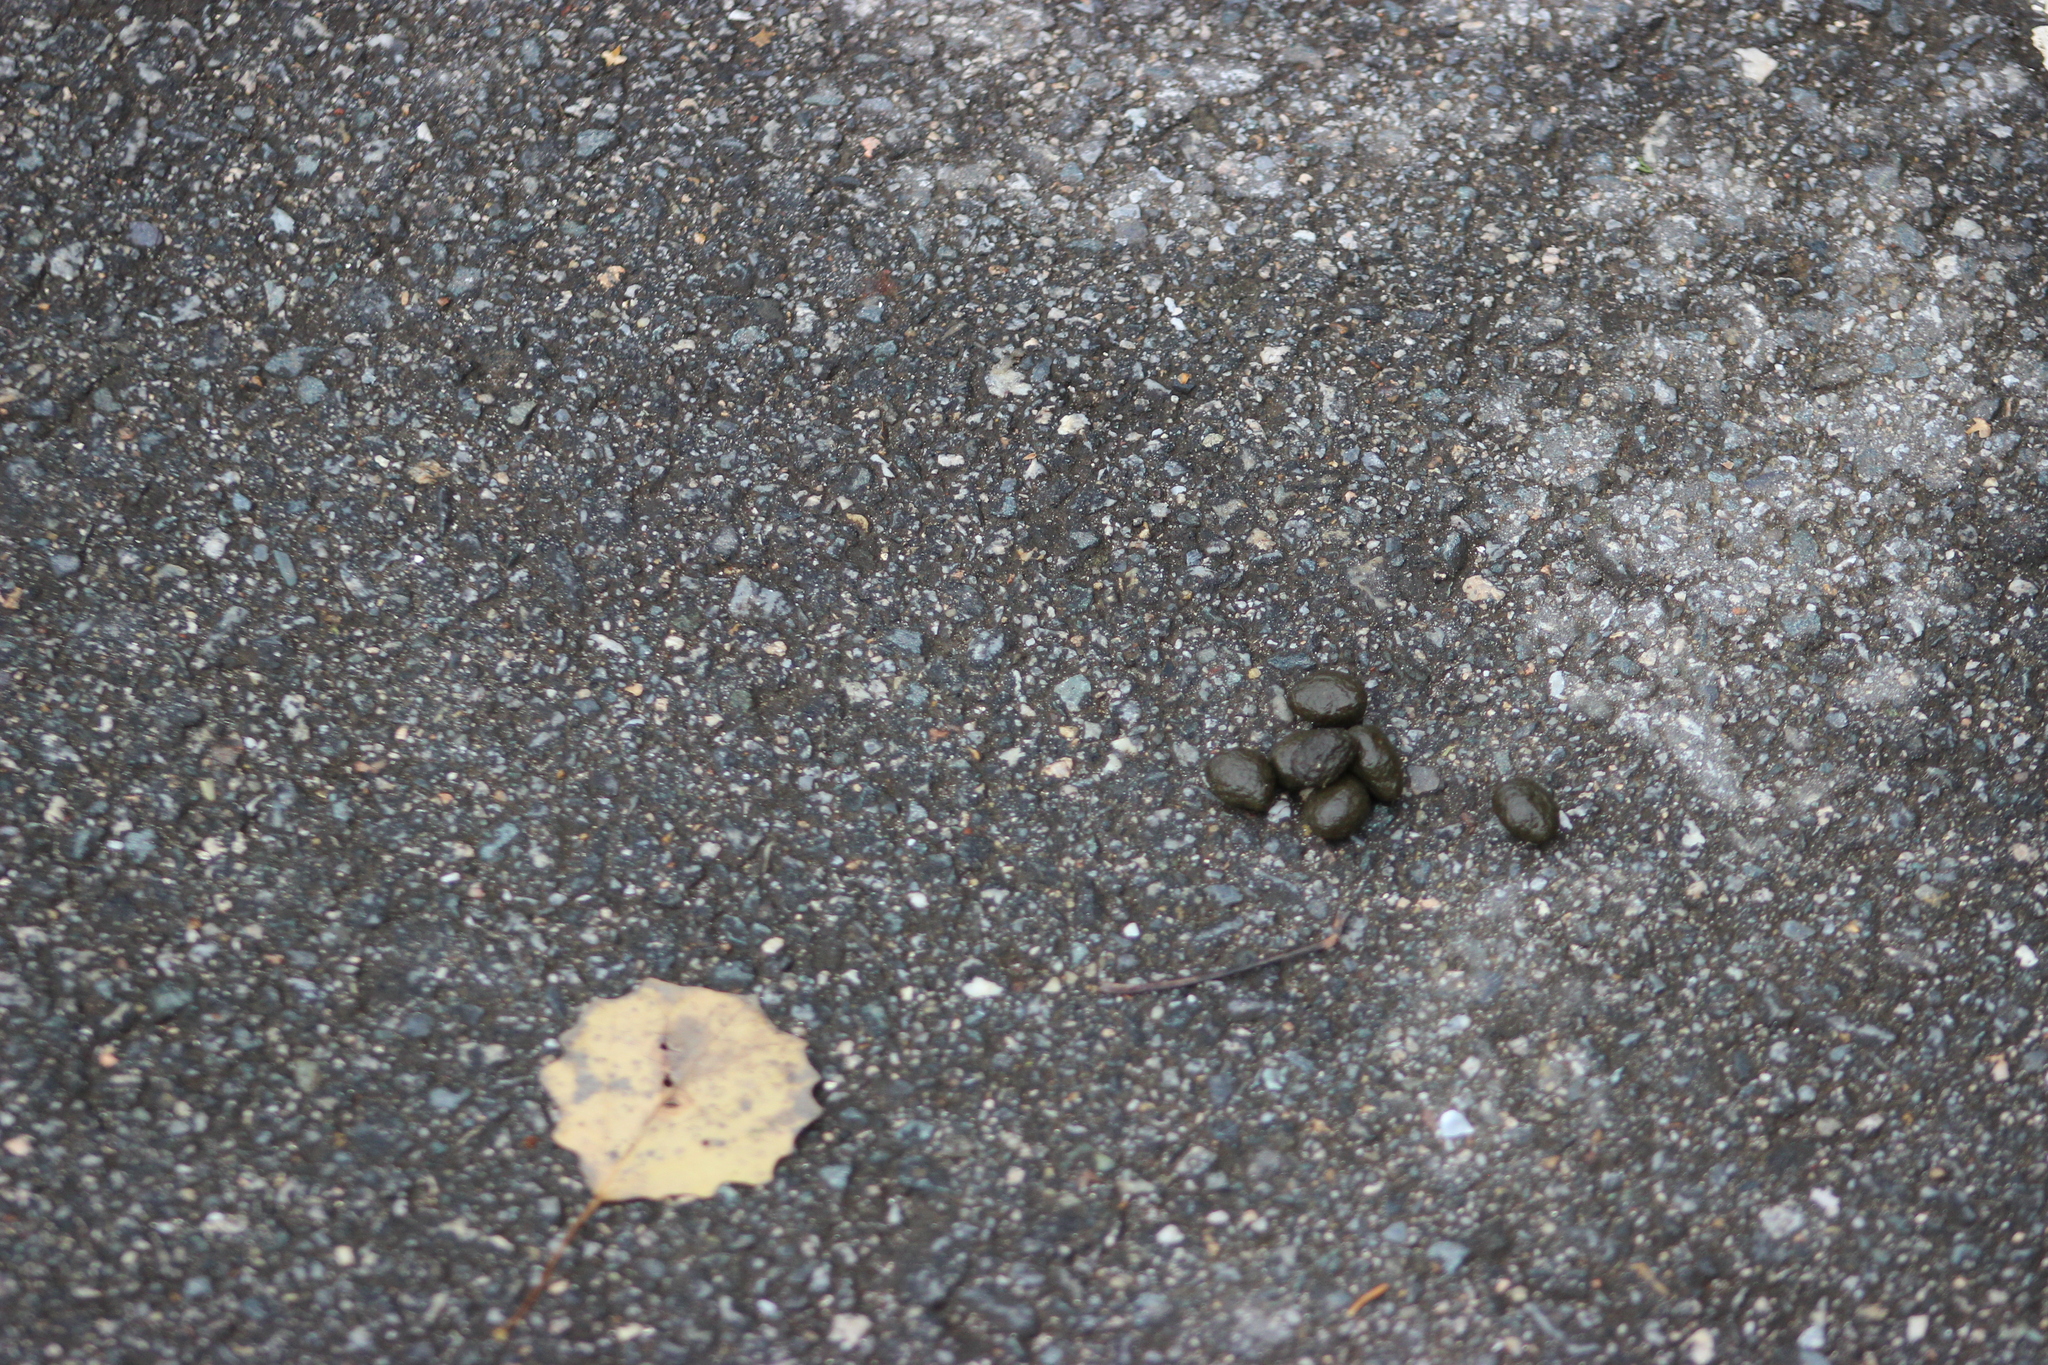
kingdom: Animalia
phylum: Chordata
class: Mammalia
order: Lagomorpha
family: Leporidae
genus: Lepus
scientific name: Lepus timidus
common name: Mountain hare
